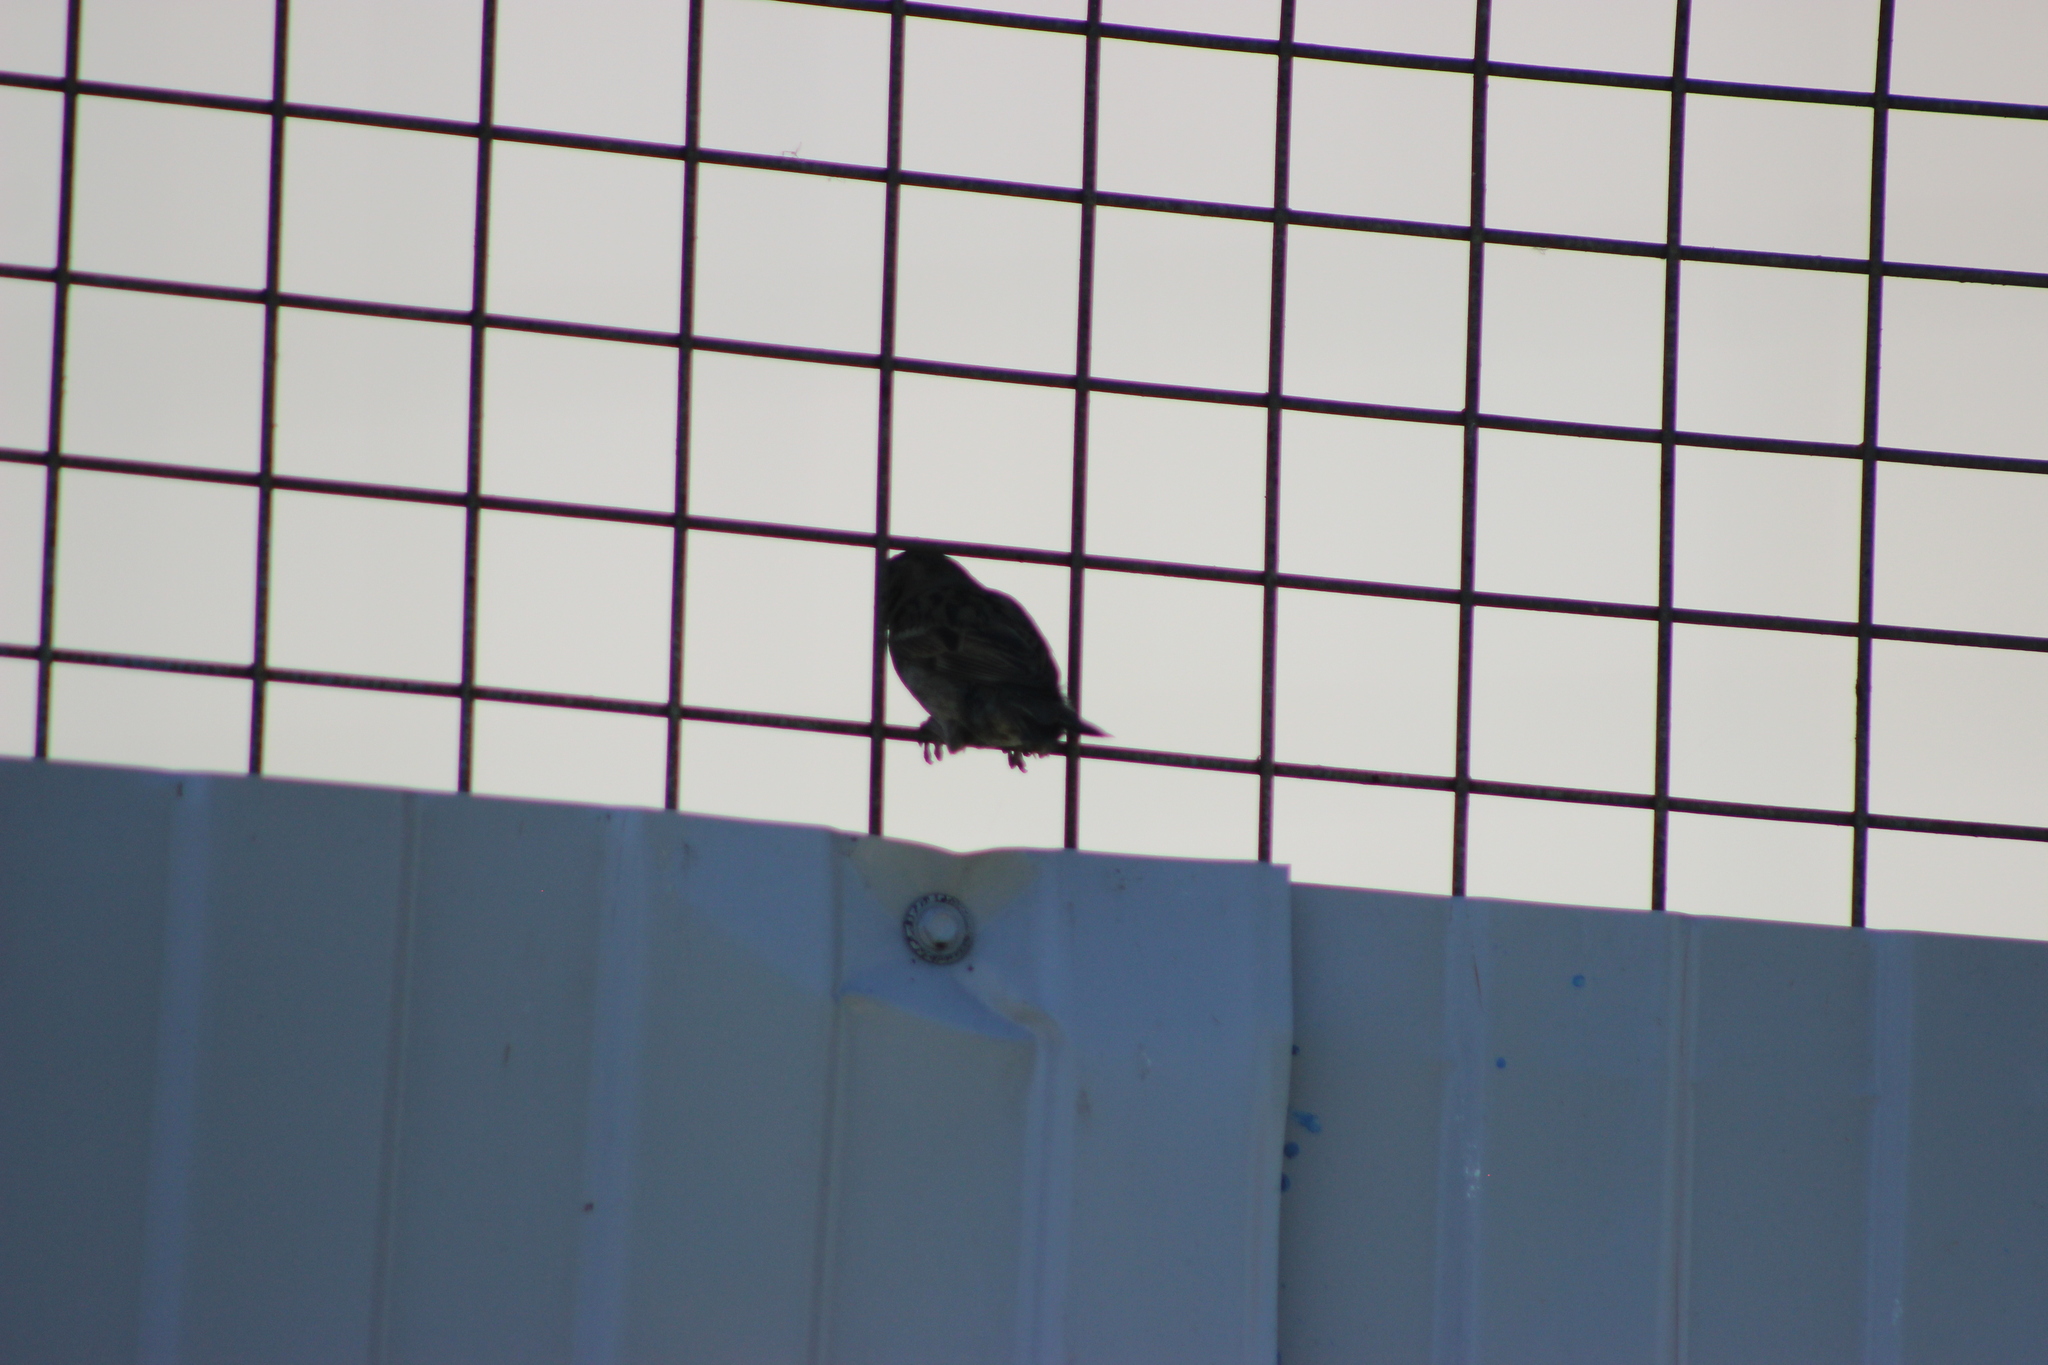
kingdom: Animalia
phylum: Chordata
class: Aves
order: Passeriformes
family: Passeridae
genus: Passer
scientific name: Passer domesticus
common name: House sparrow
